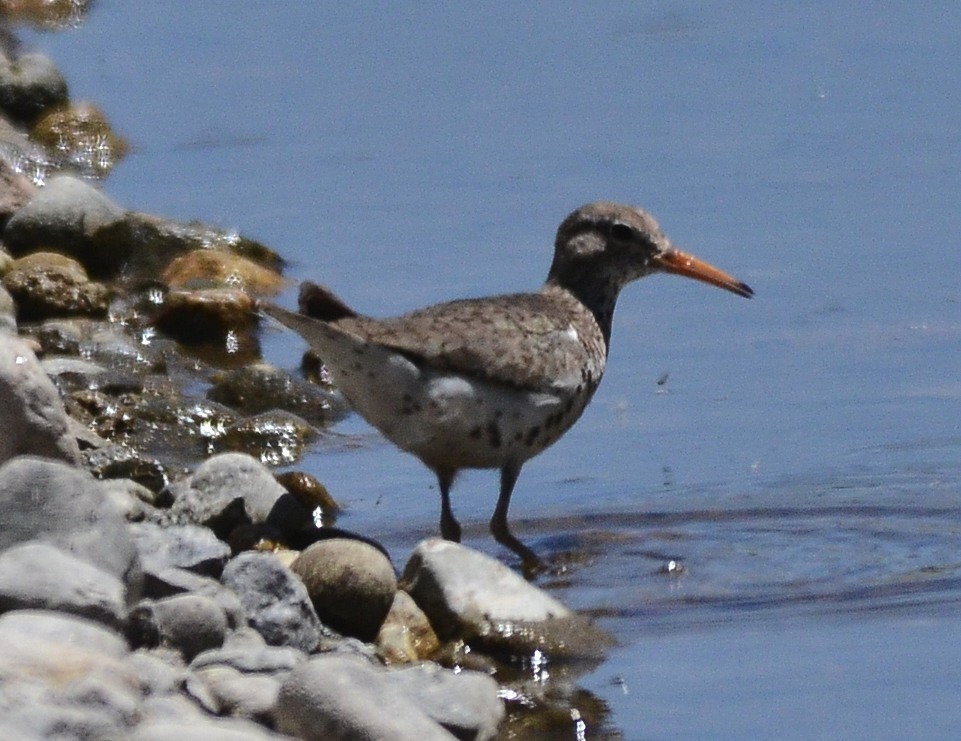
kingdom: Animalia
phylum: Chordata
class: Aves
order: Charadriiformes
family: Scolopacidae
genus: Actitis
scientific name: Actitis macularius
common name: Spotted sandpiper
